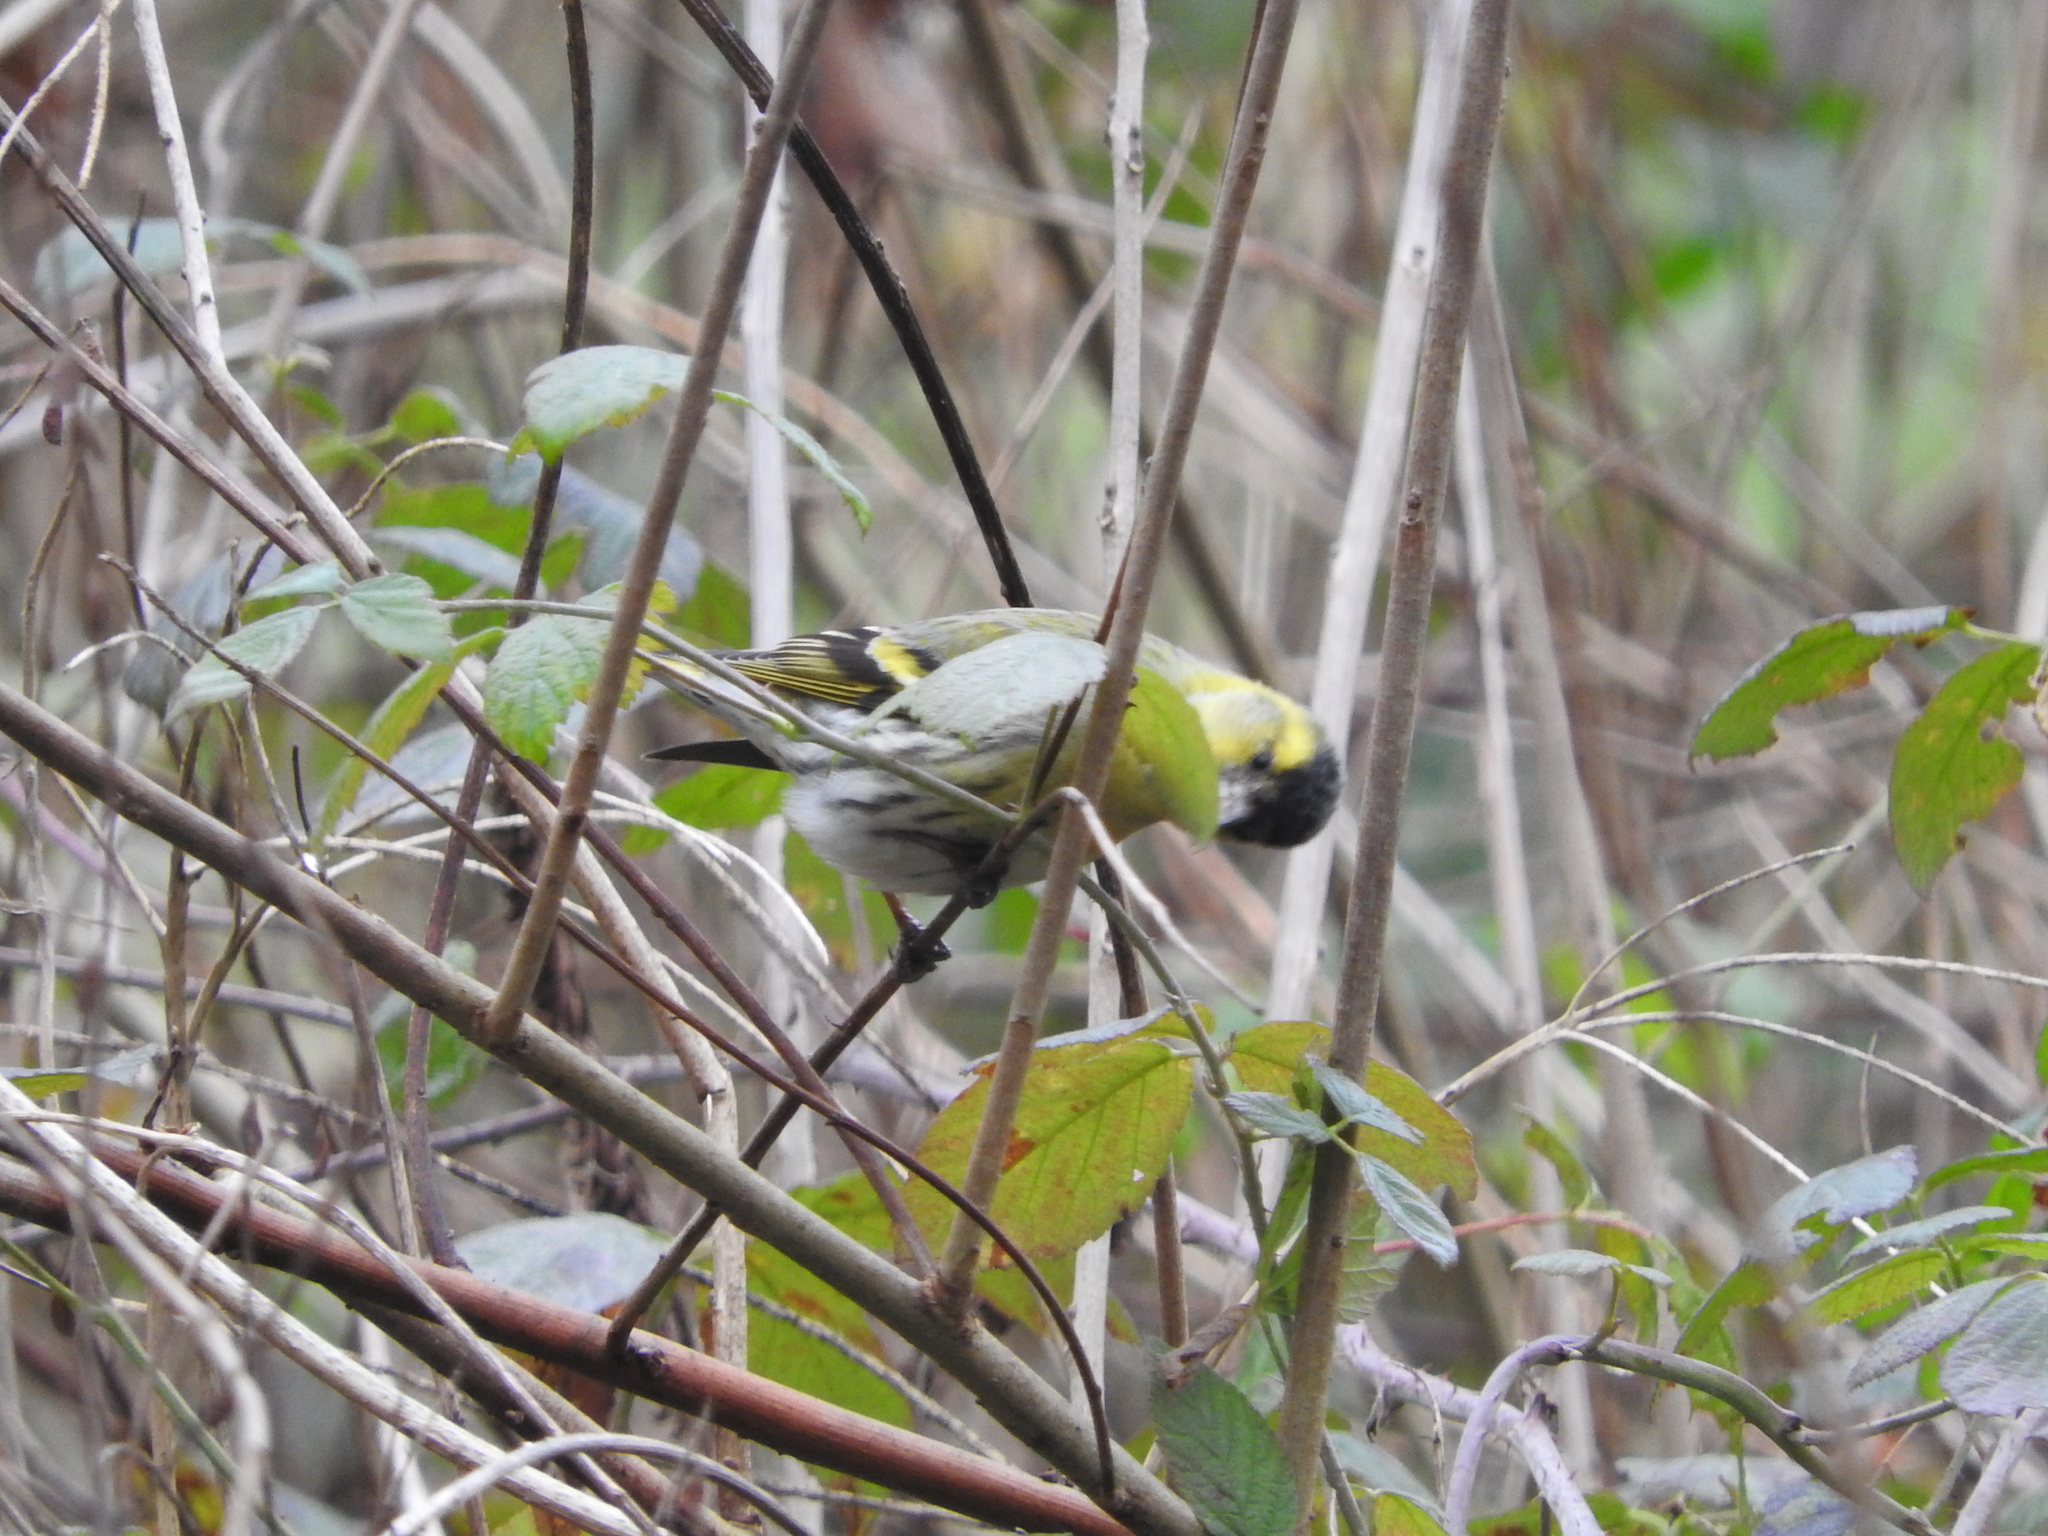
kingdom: Animalia
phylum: Chordata
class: Aves
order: Passeriformes
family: Fringillidae
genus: Spinus
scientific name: Spinus spinus
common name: Eurasian siskin
